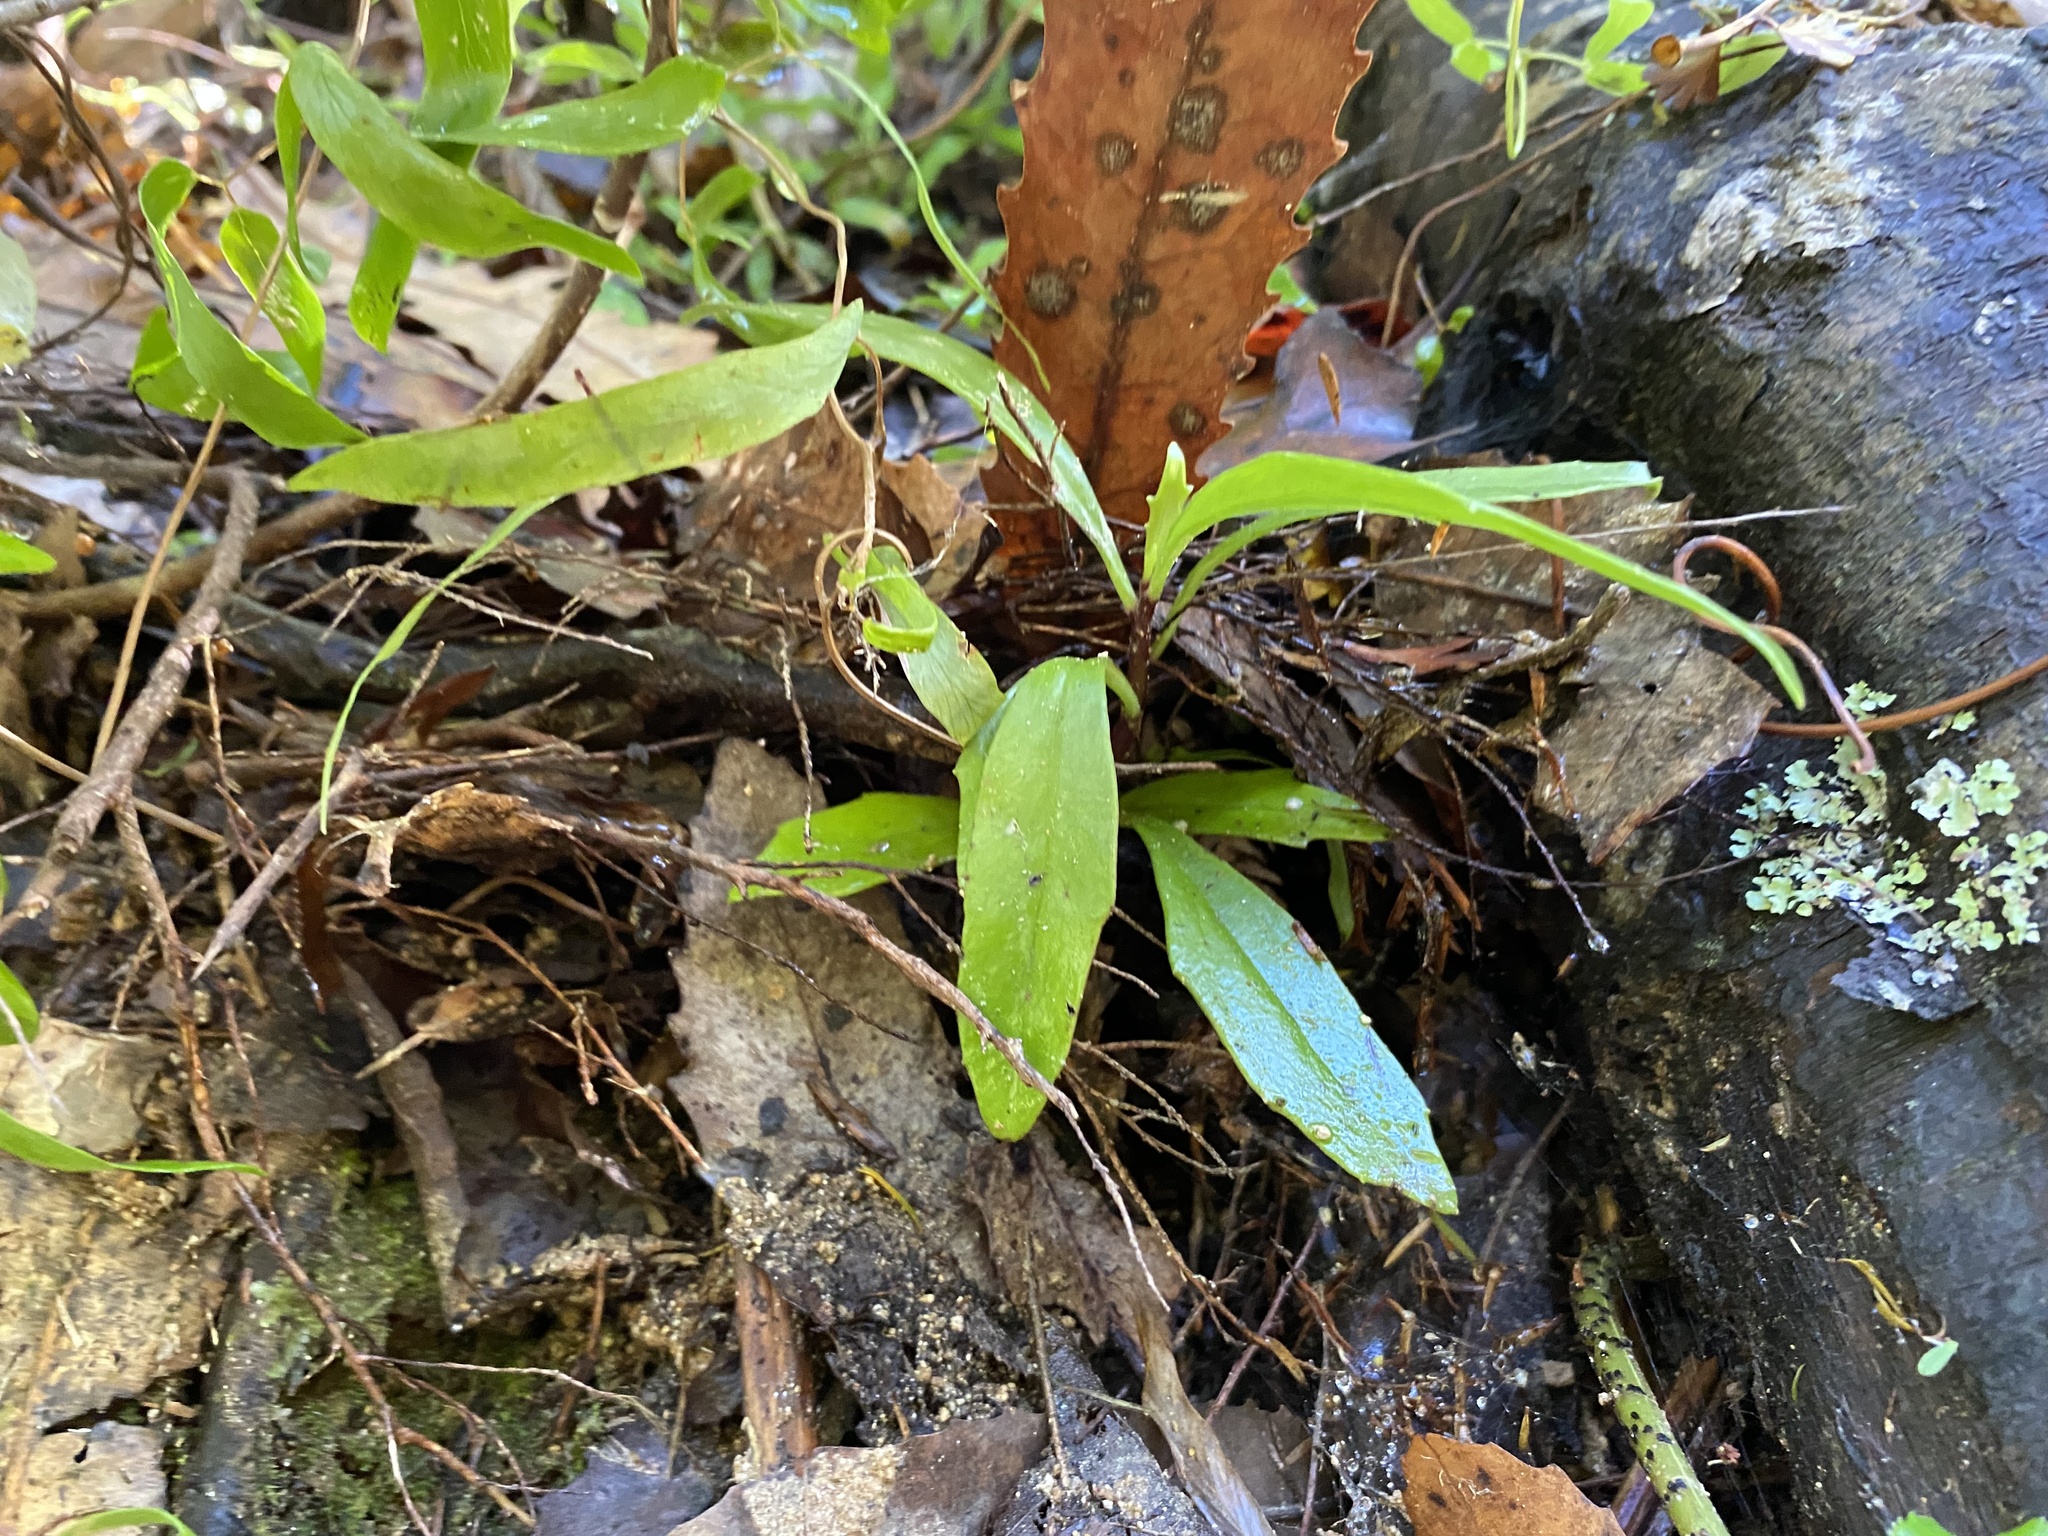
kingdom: Plantae
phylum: Tracheophyta
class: Magnoliopsida
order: Asterales
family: Asteraceae
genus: Brachyglottis
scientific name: Brachyglottis kirkii
